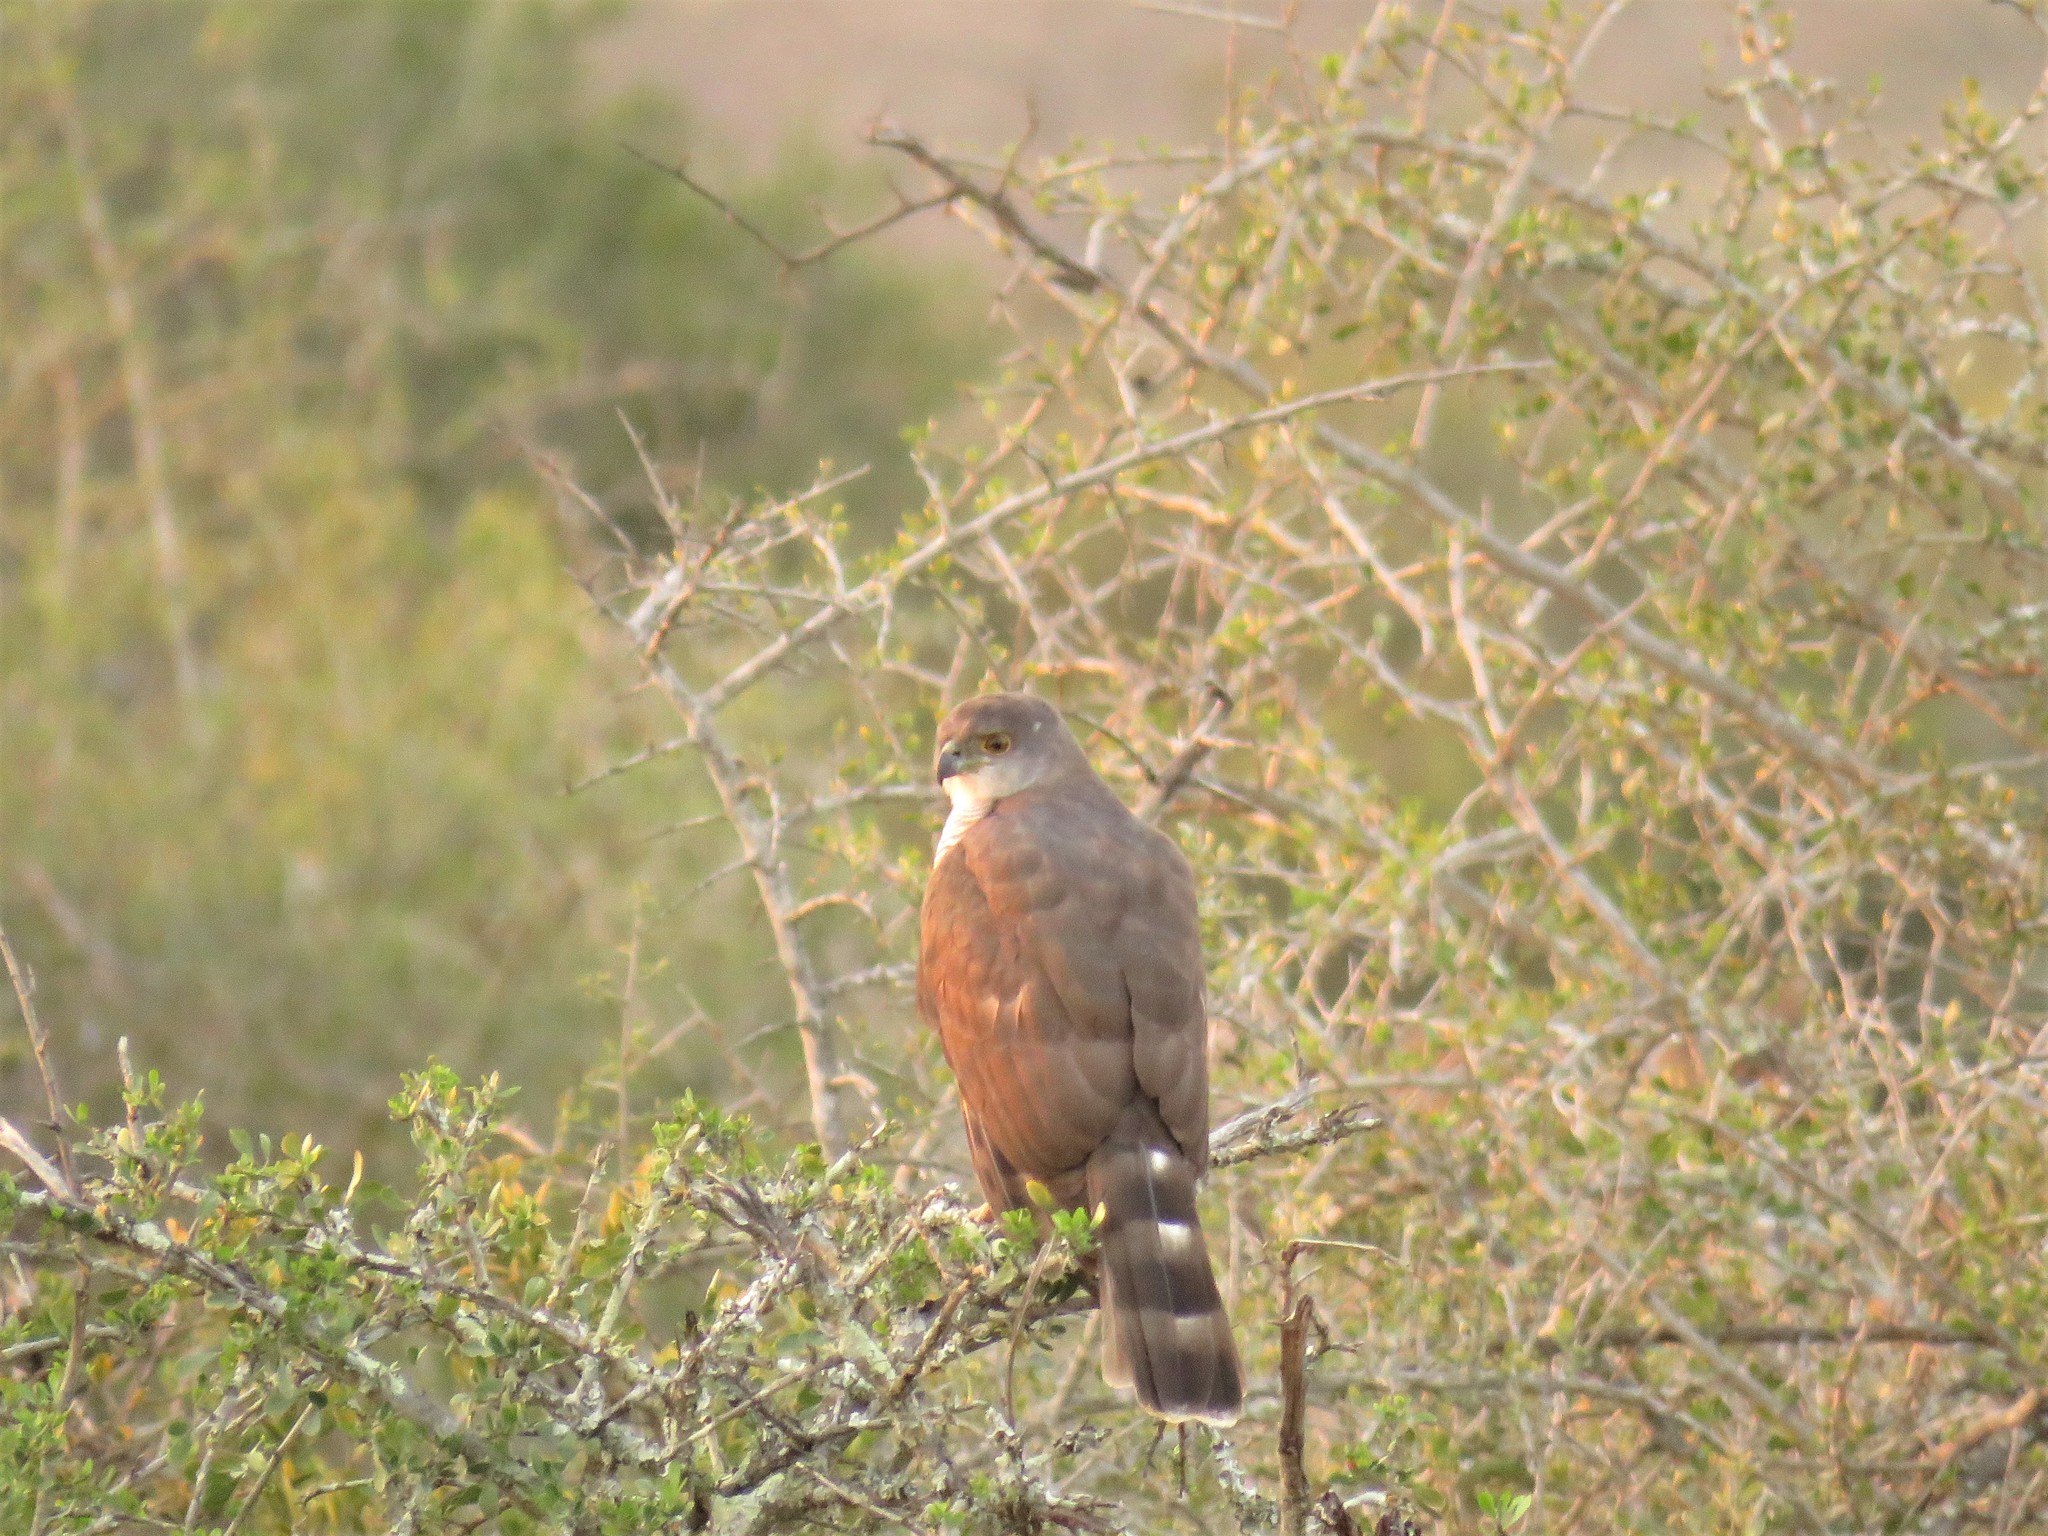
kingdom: Animalia
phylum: Chordata
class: Aves
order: Accipitriformes
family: Accipitridae
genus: Accipiter
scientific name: Accipiter tachiro
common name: African goshawk
